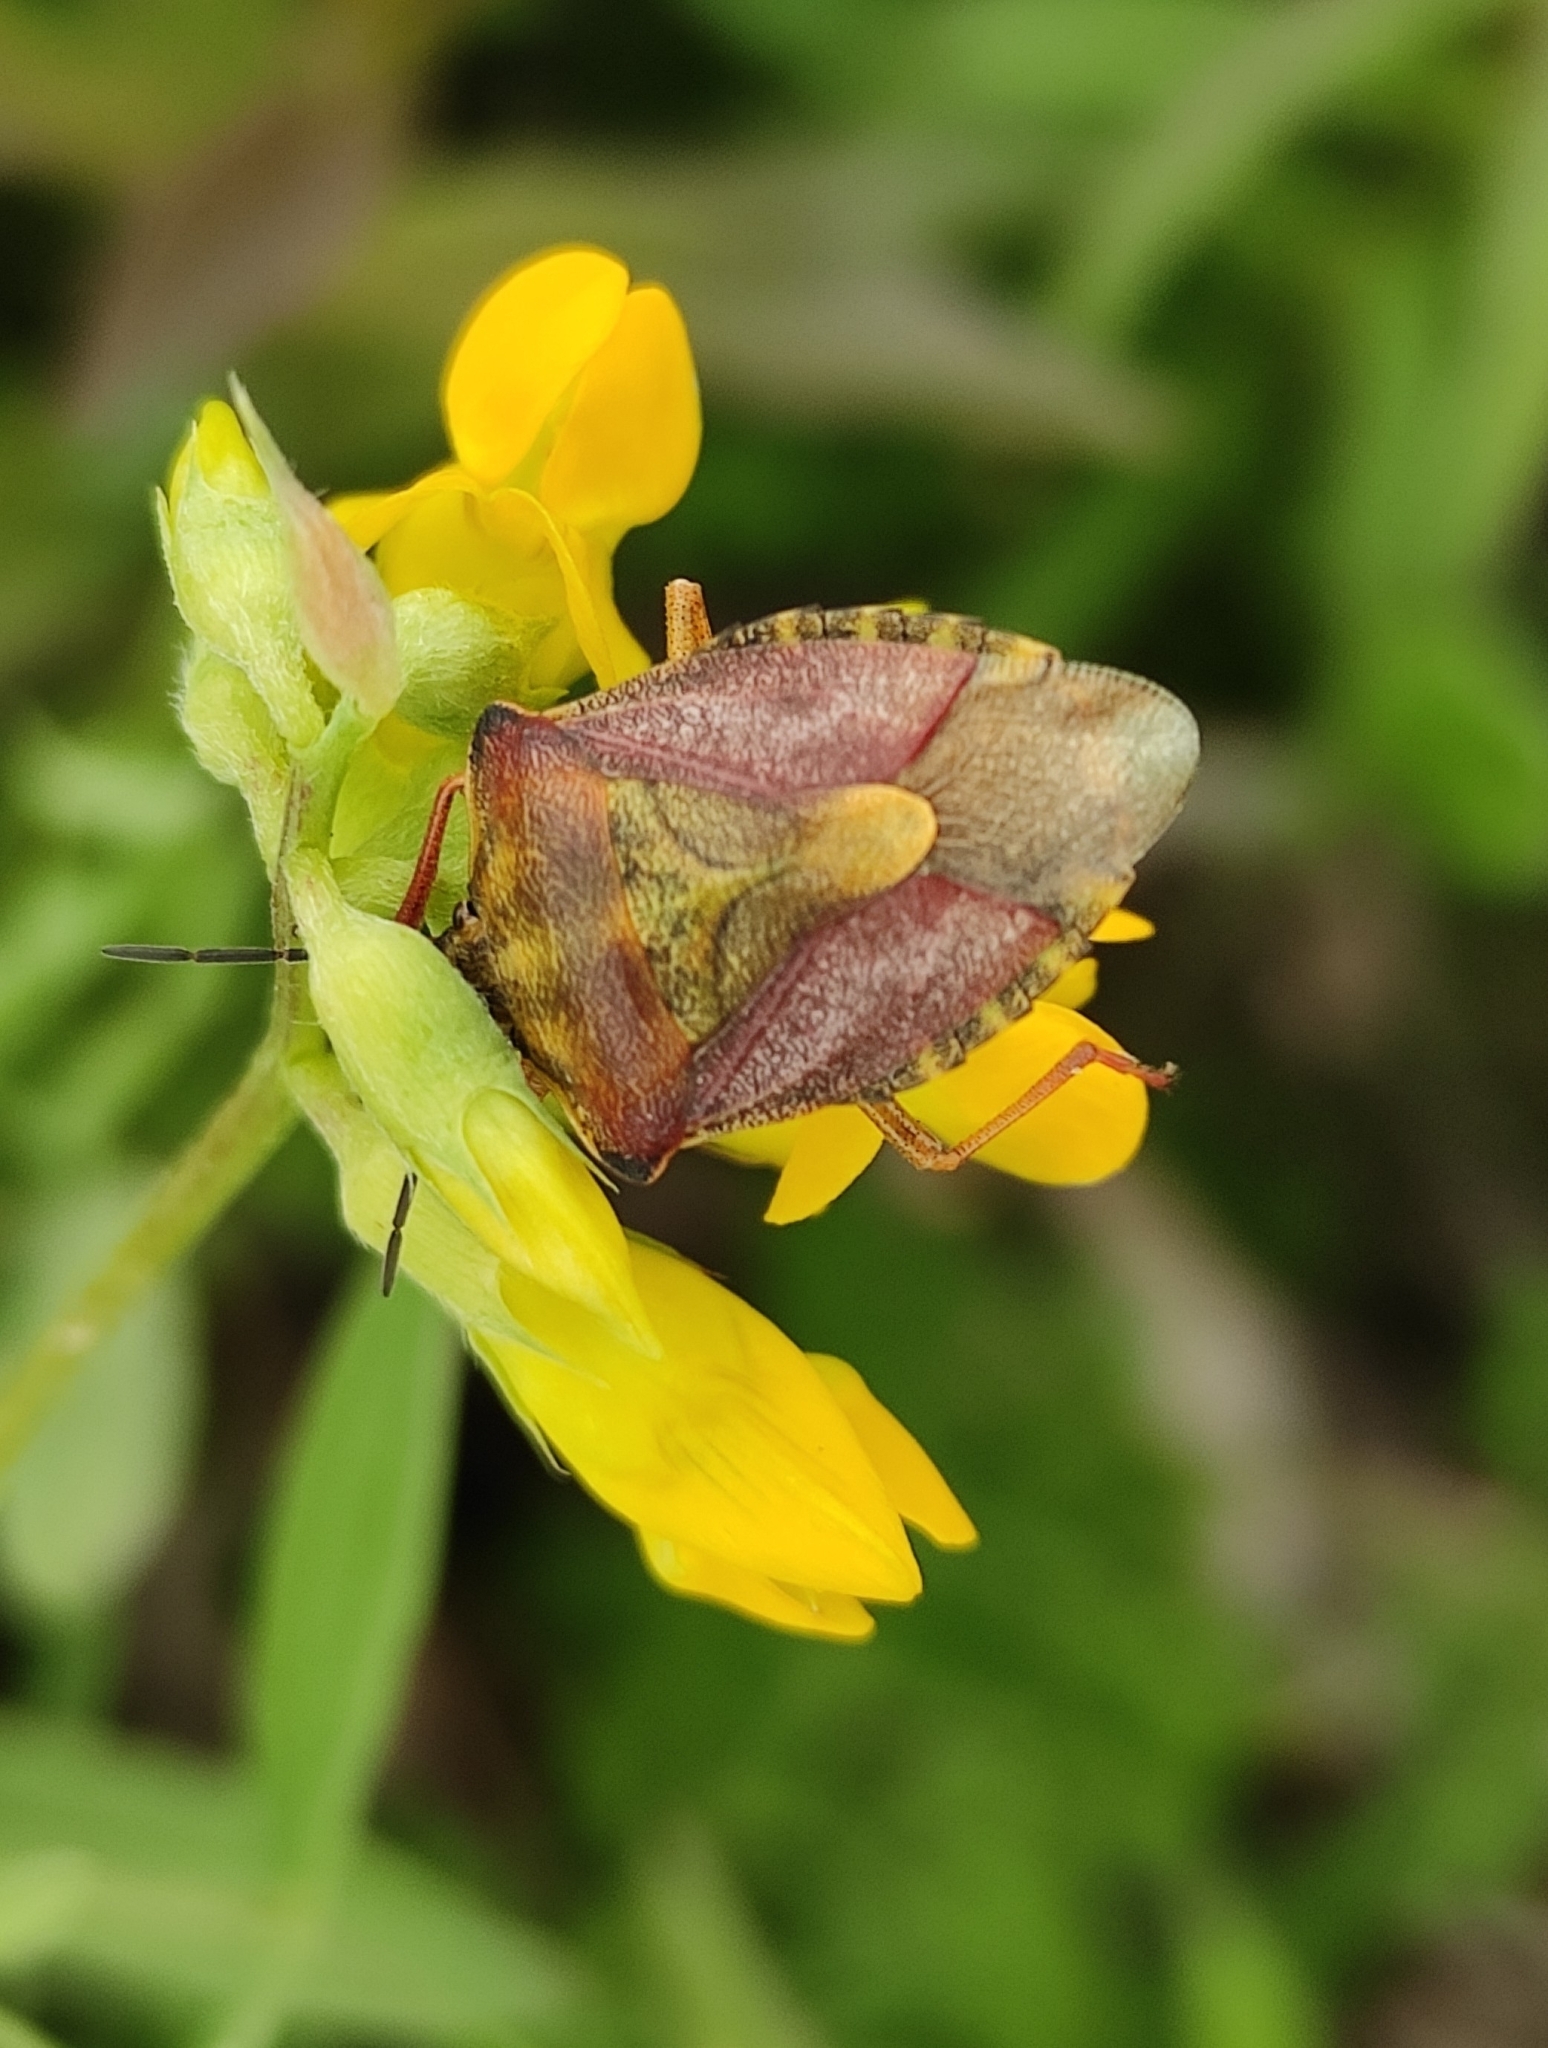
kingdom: Animalia
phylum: Arthropoda
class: Insecta
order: Hemiptera
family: Pentatomidae
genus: Dolycoris
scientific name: Dolycoris baccarum
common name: Sloe bug
